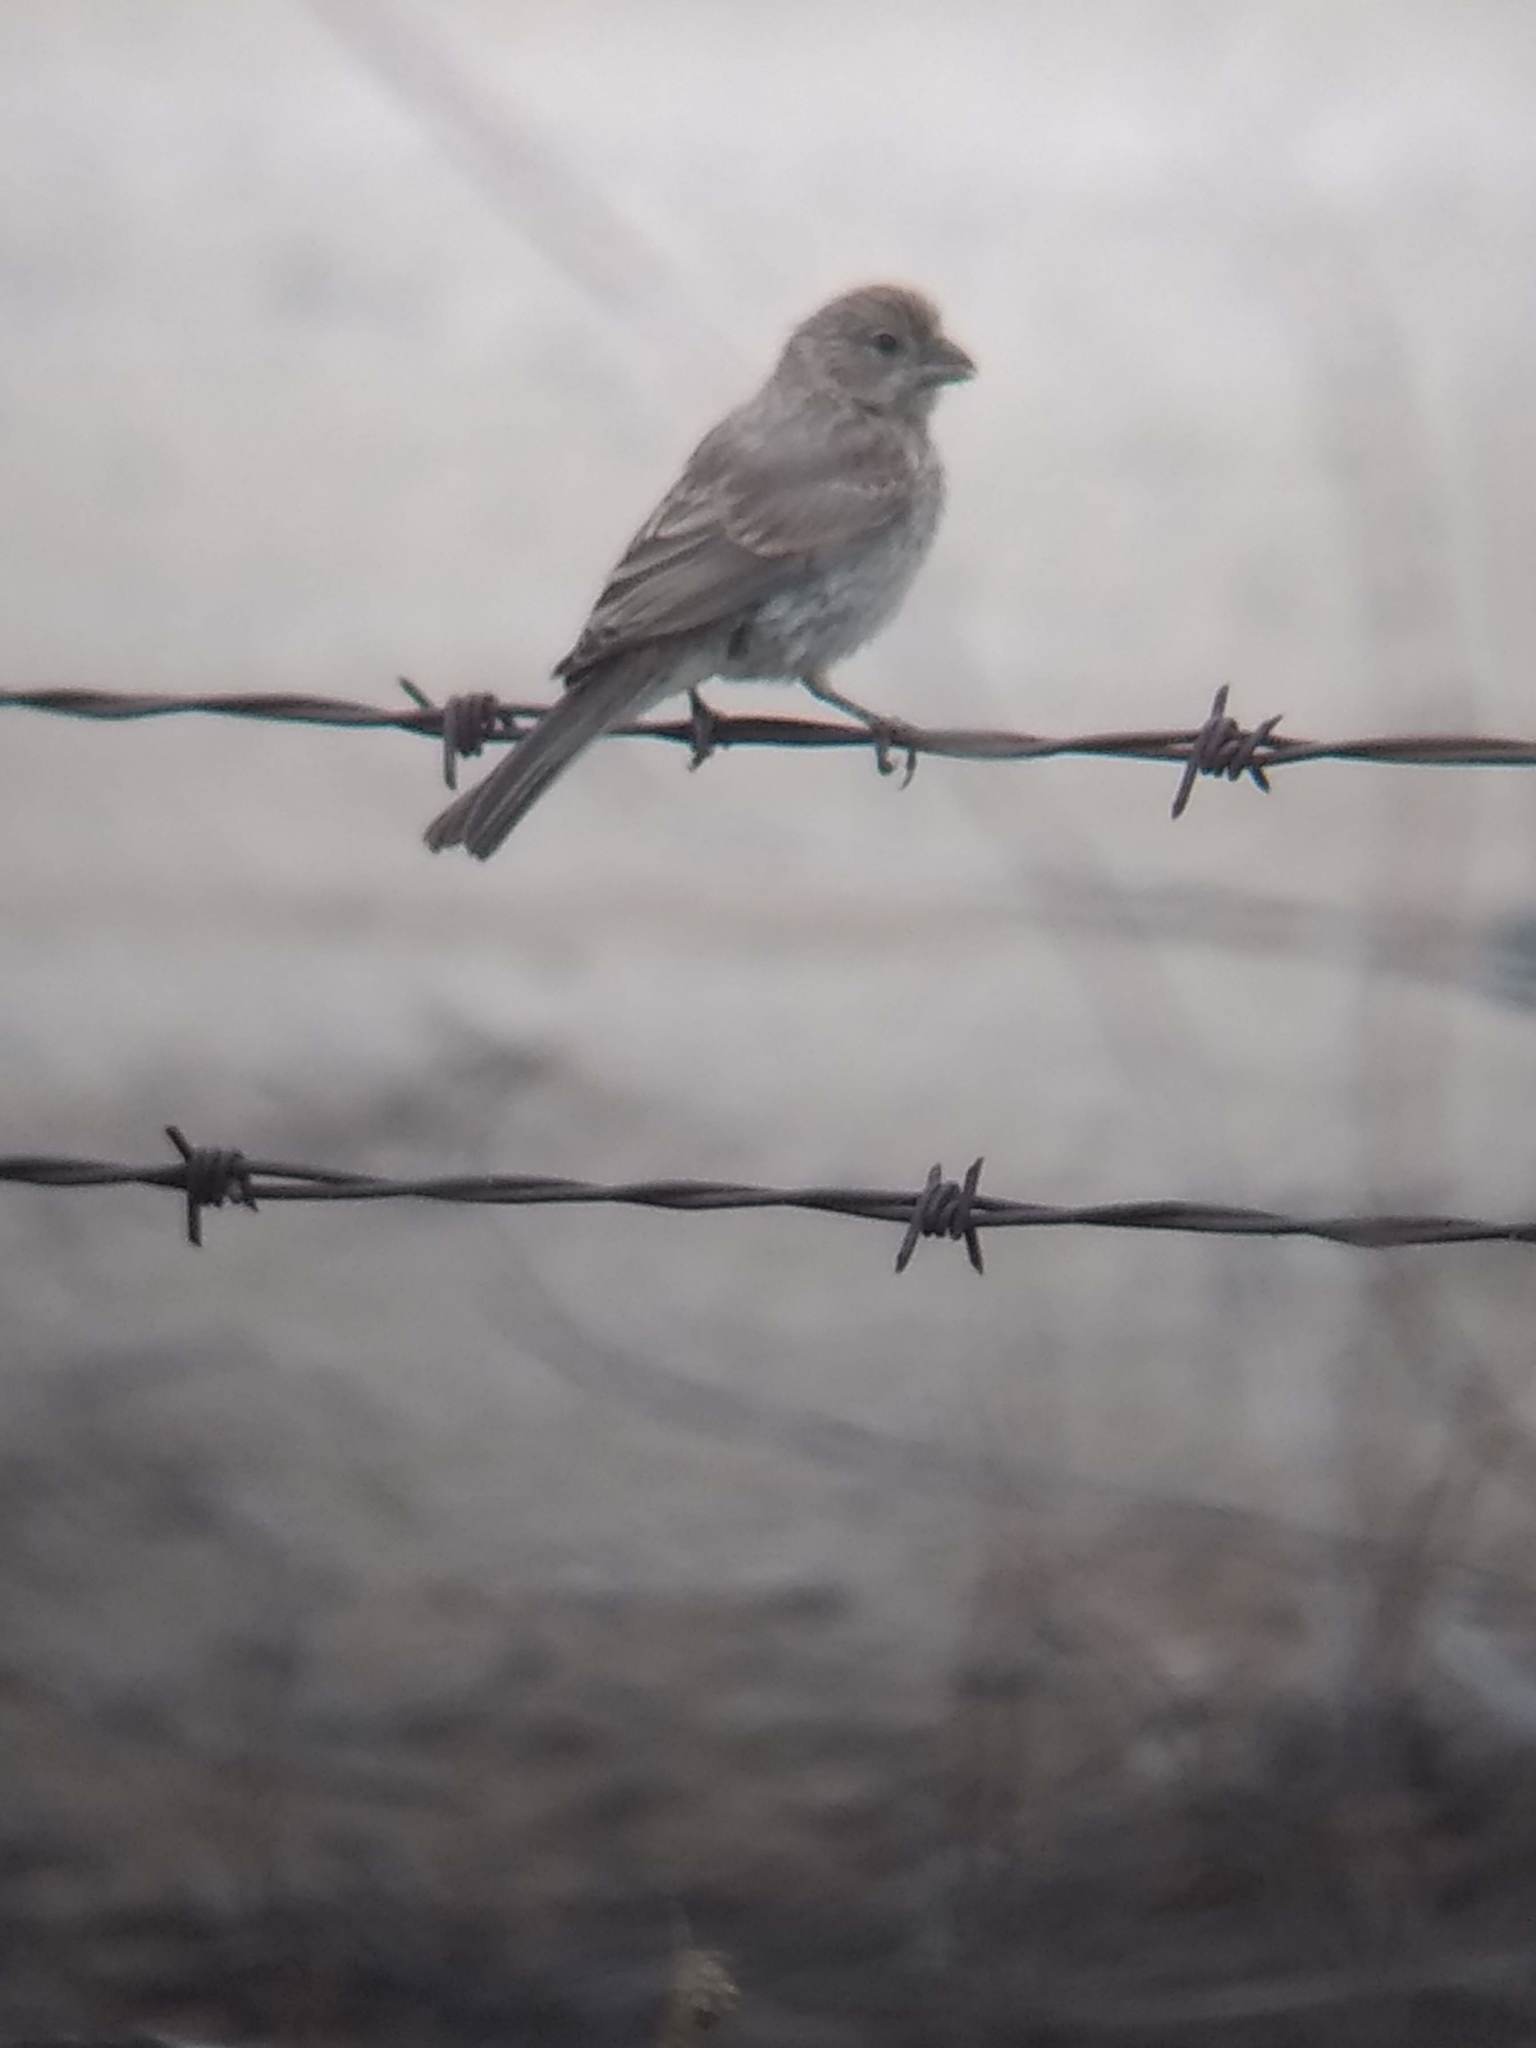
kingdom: Animalia
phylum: Chordata
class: Aves
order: Passeriformes
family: Fringillidae
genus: Haemorhous
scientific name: Haemorhous mexicanus
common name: House finch
